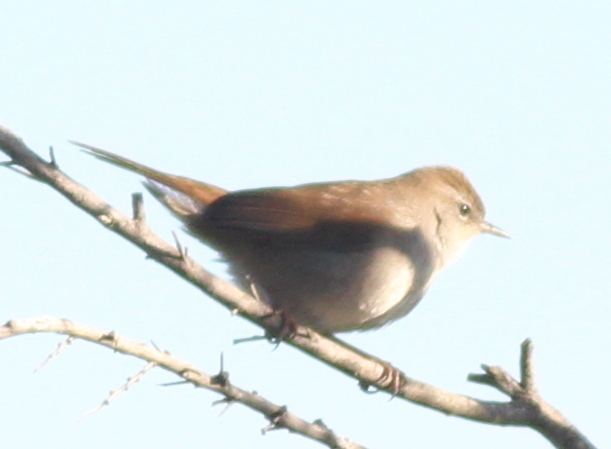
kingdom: Animalia
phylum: Chordata
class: Aves
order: Passeriformes
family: Cettiidae
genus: Cettia
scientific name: Cettia cetti
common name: Cetti's warbler
